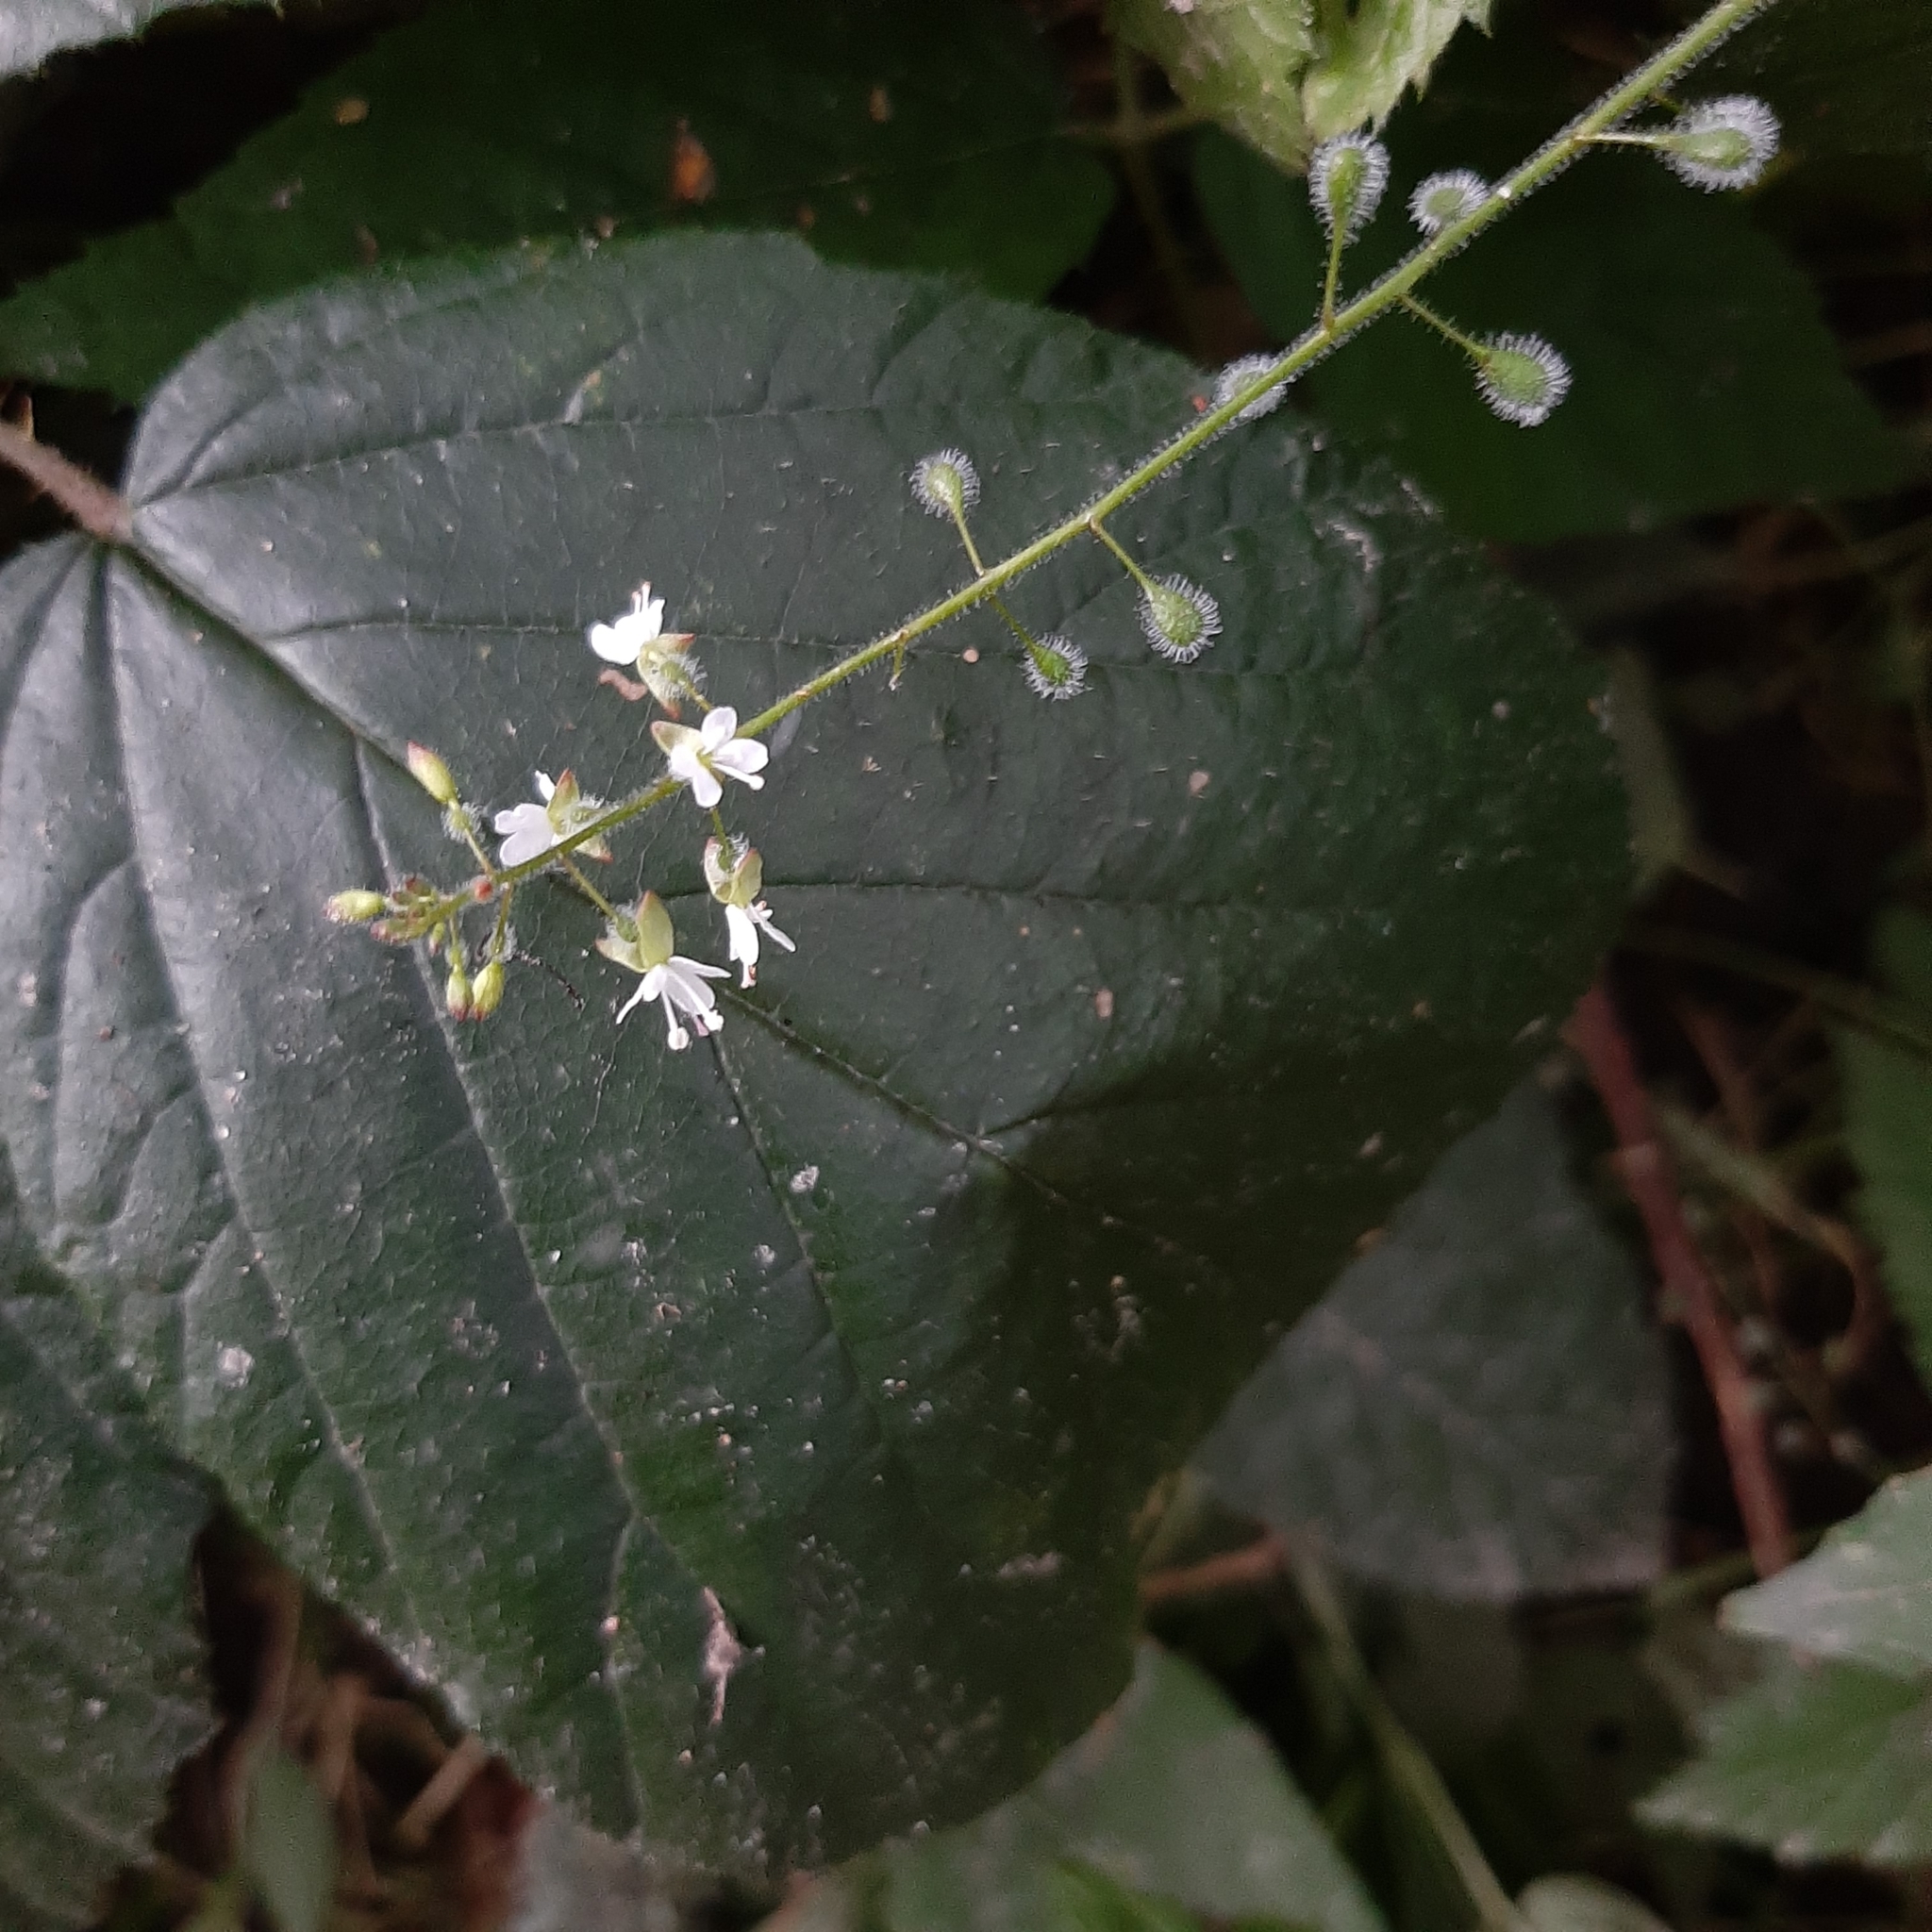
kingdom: Plantae
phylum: Tracheophyta
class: Magnoliopsida
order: Myrtales
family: Onagraceae
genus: Circaea
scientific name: Circaea lutetiana
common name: Enchanter's-nightshade
